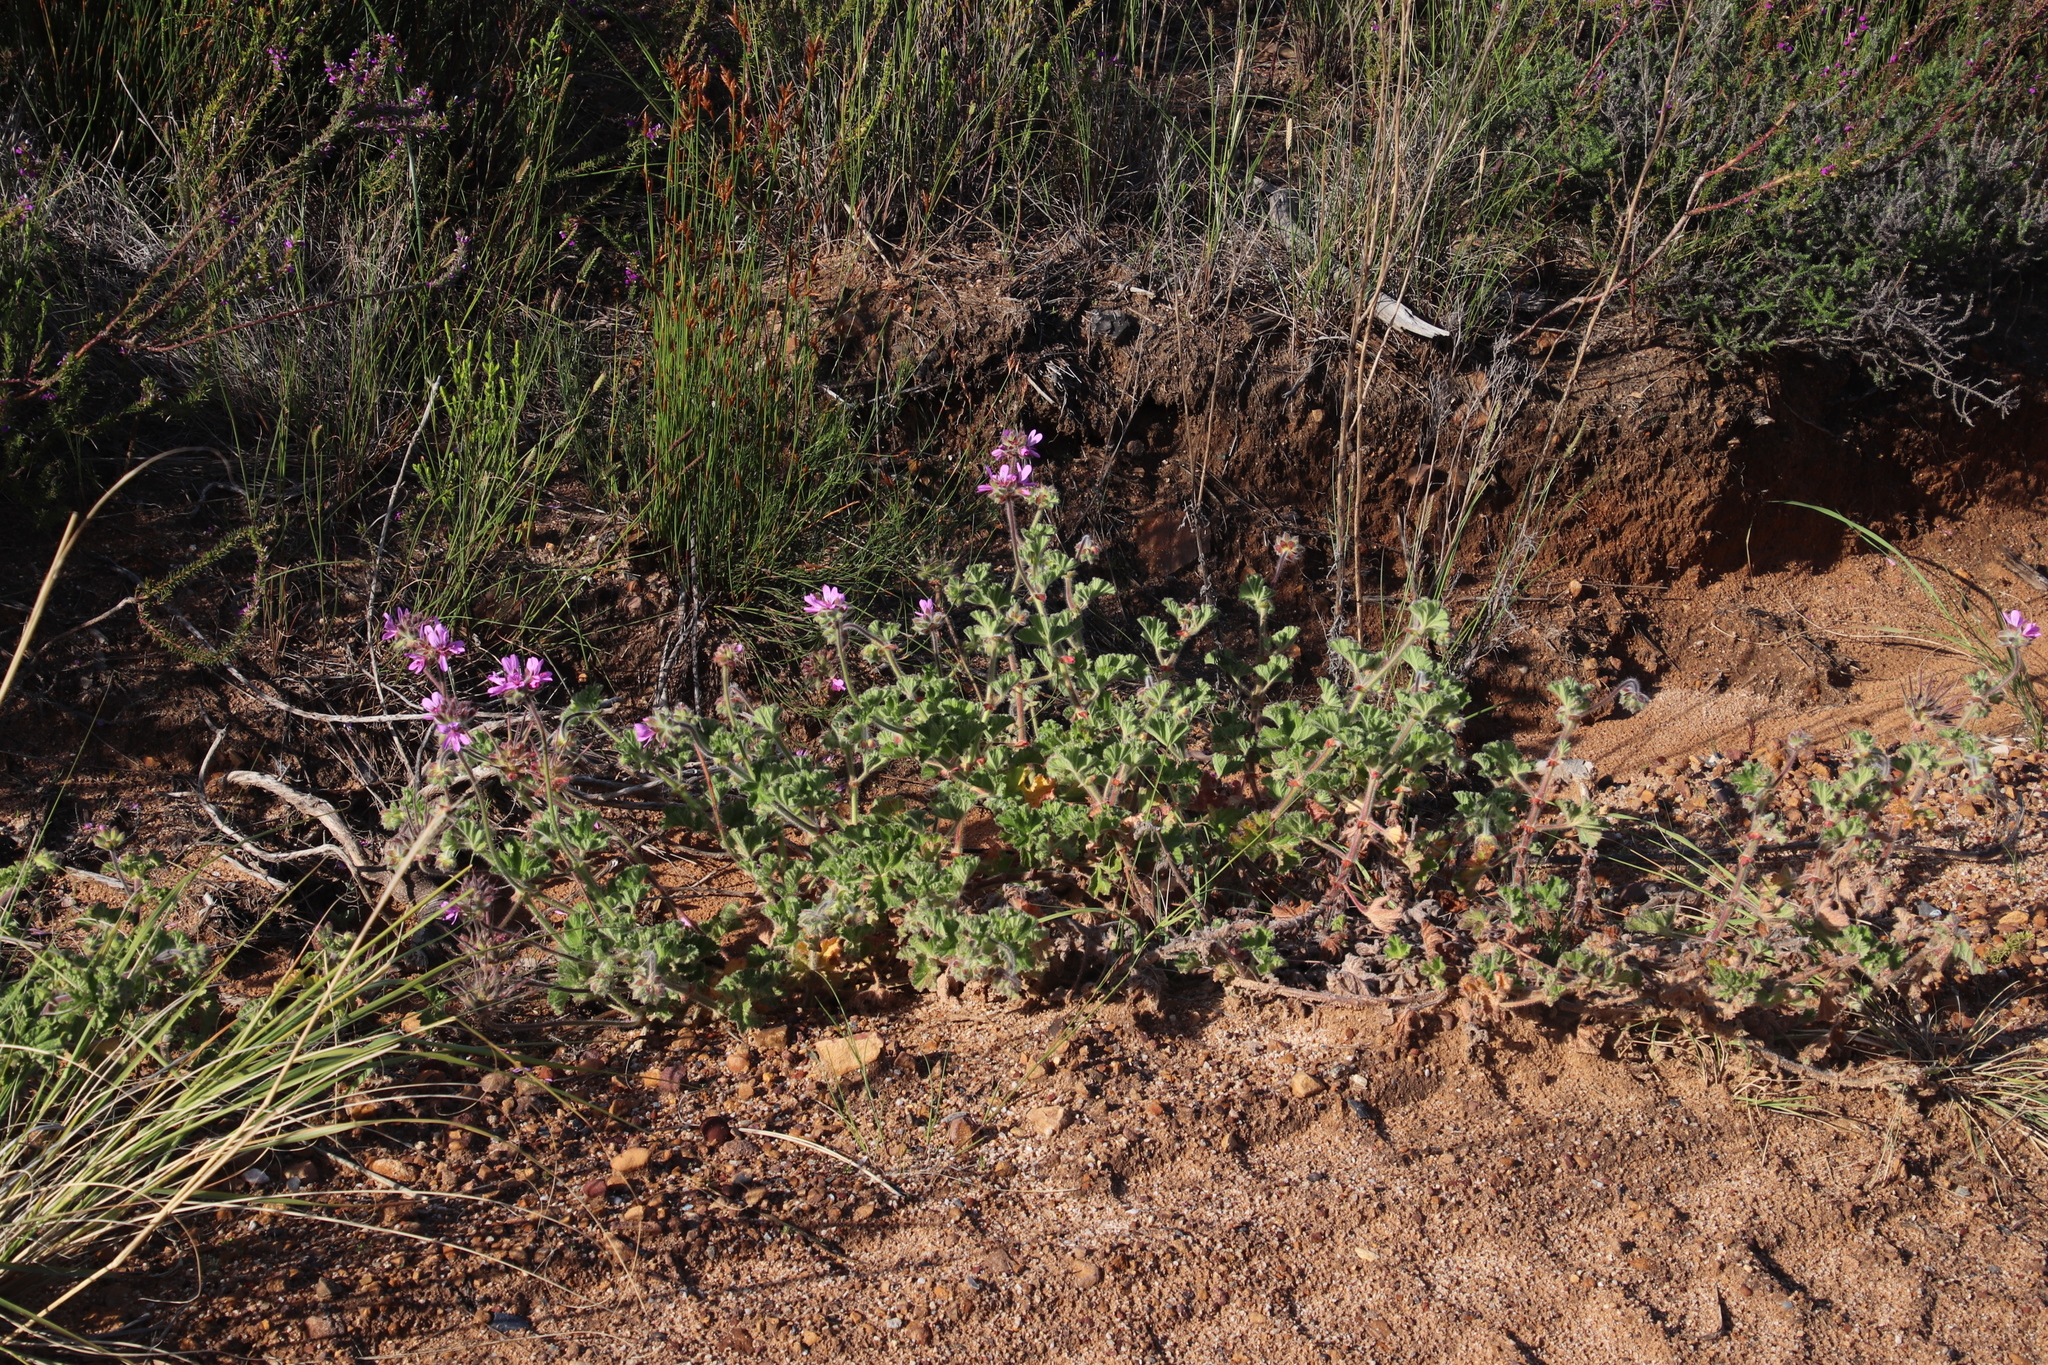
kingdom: Plantae
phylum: Tracheophyta
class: Magnoliopsida
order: Geraniales
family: Geraniaceae
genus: Pelargonium
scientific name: Pelargonium capitatum
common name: Rose scented geranium
